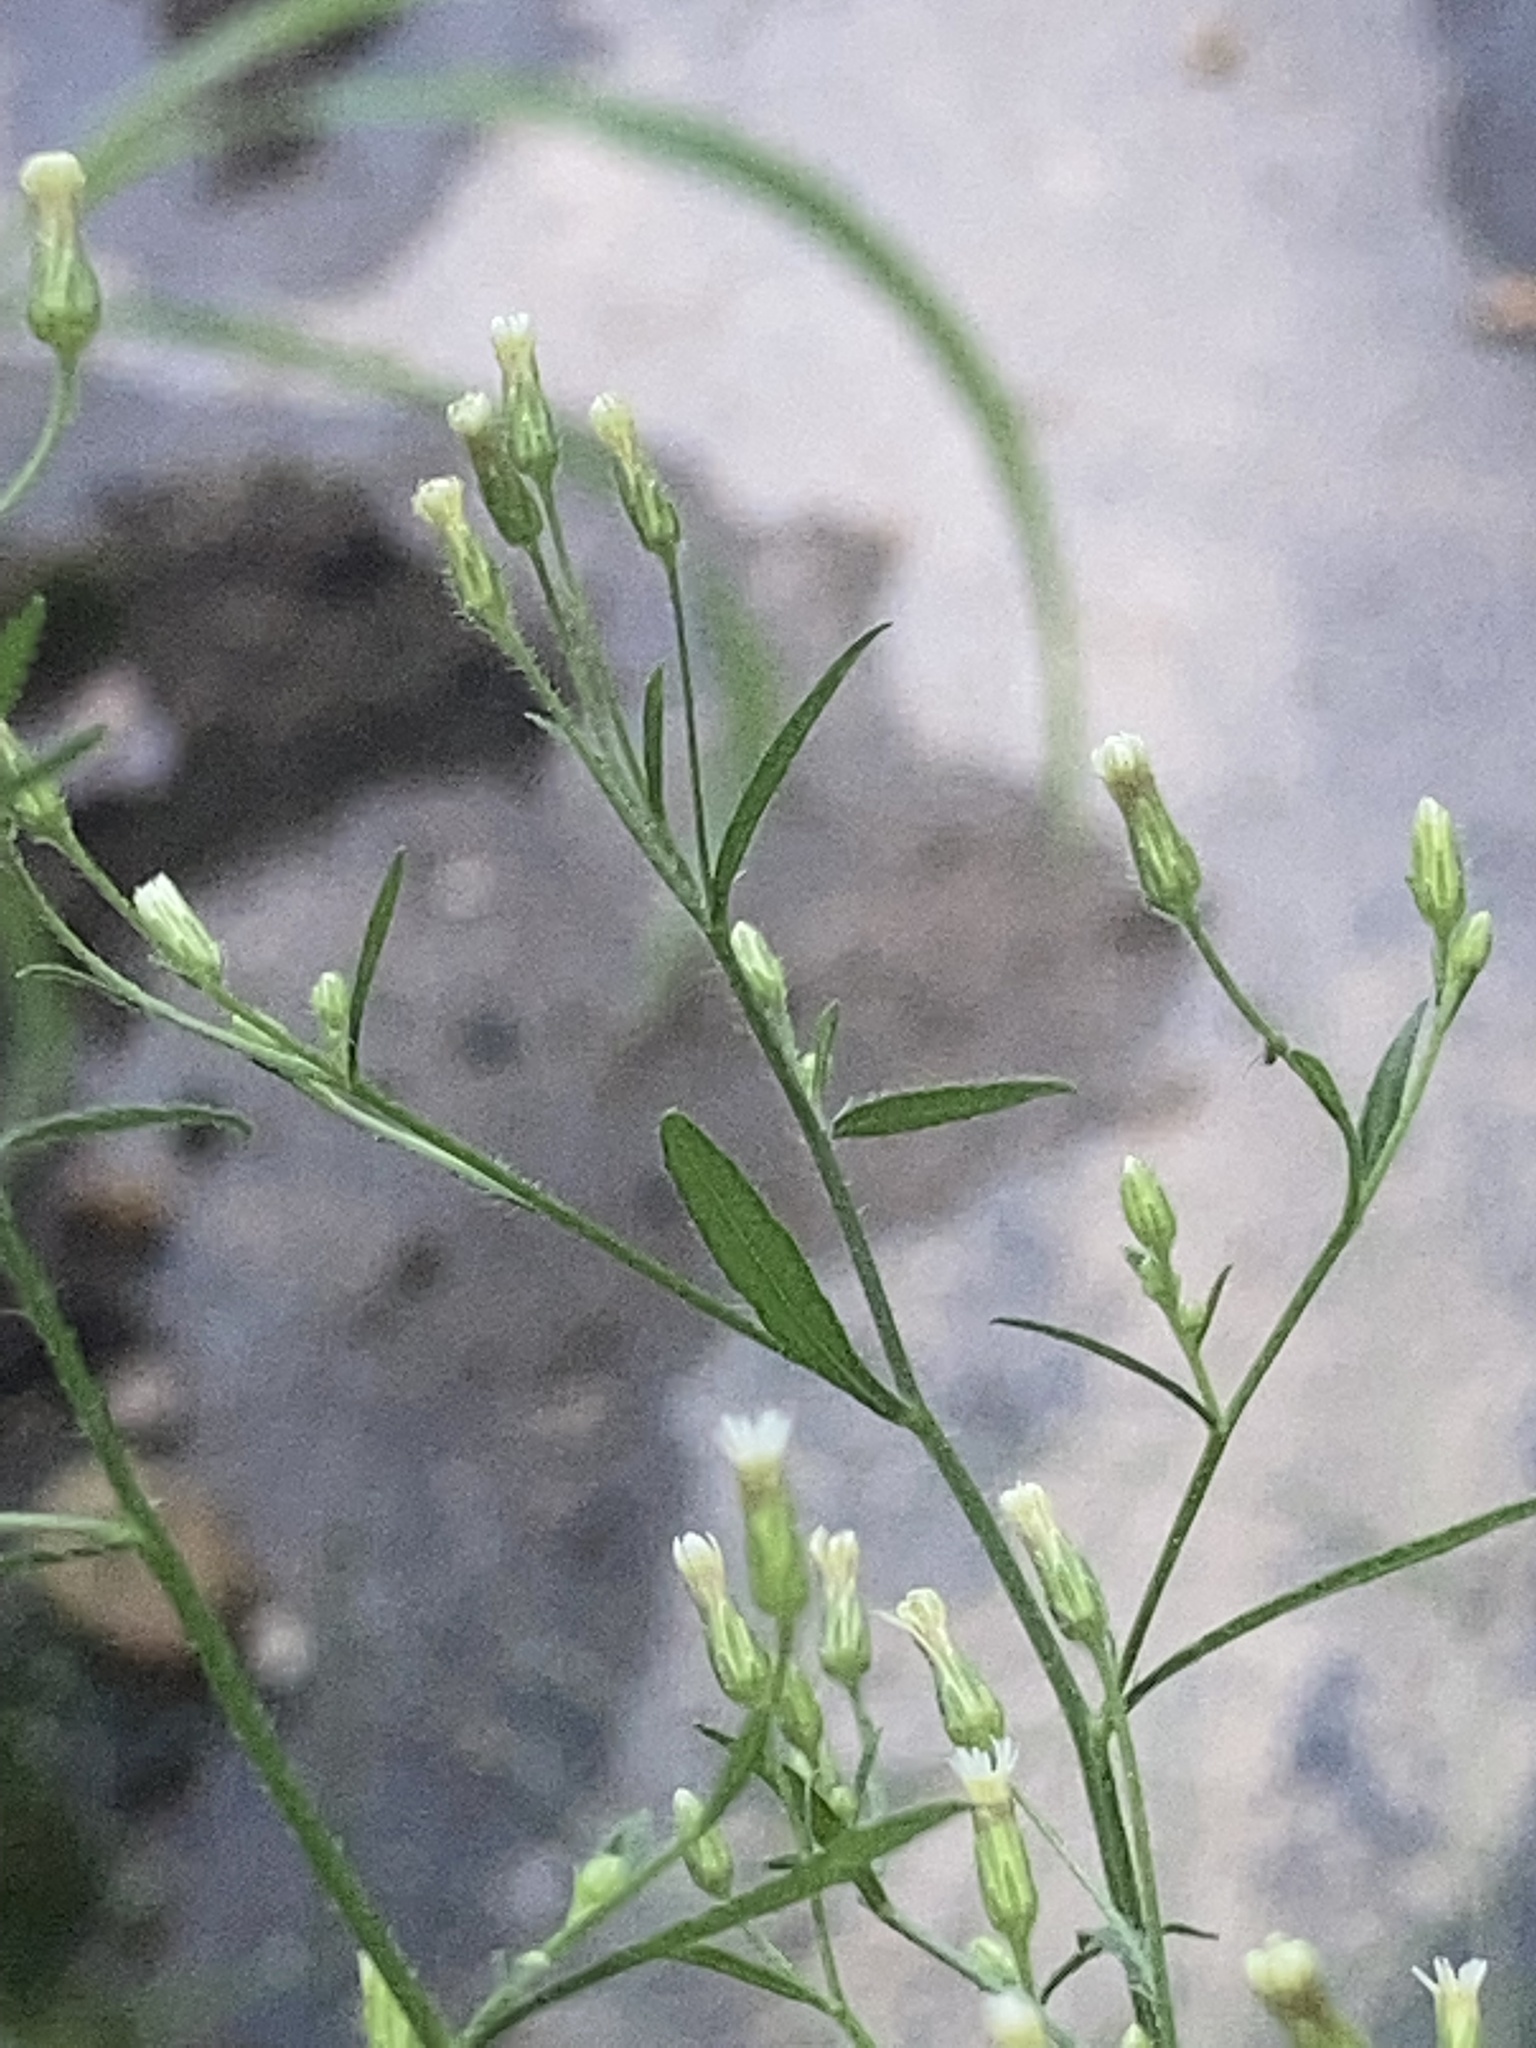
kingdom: Plantae
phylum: Tracheophyta
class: Magnoliopsida
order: Asterales
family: Asteraceae
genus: Erigeron
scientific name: Erigeron canadensis
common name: Canadian fleabane
